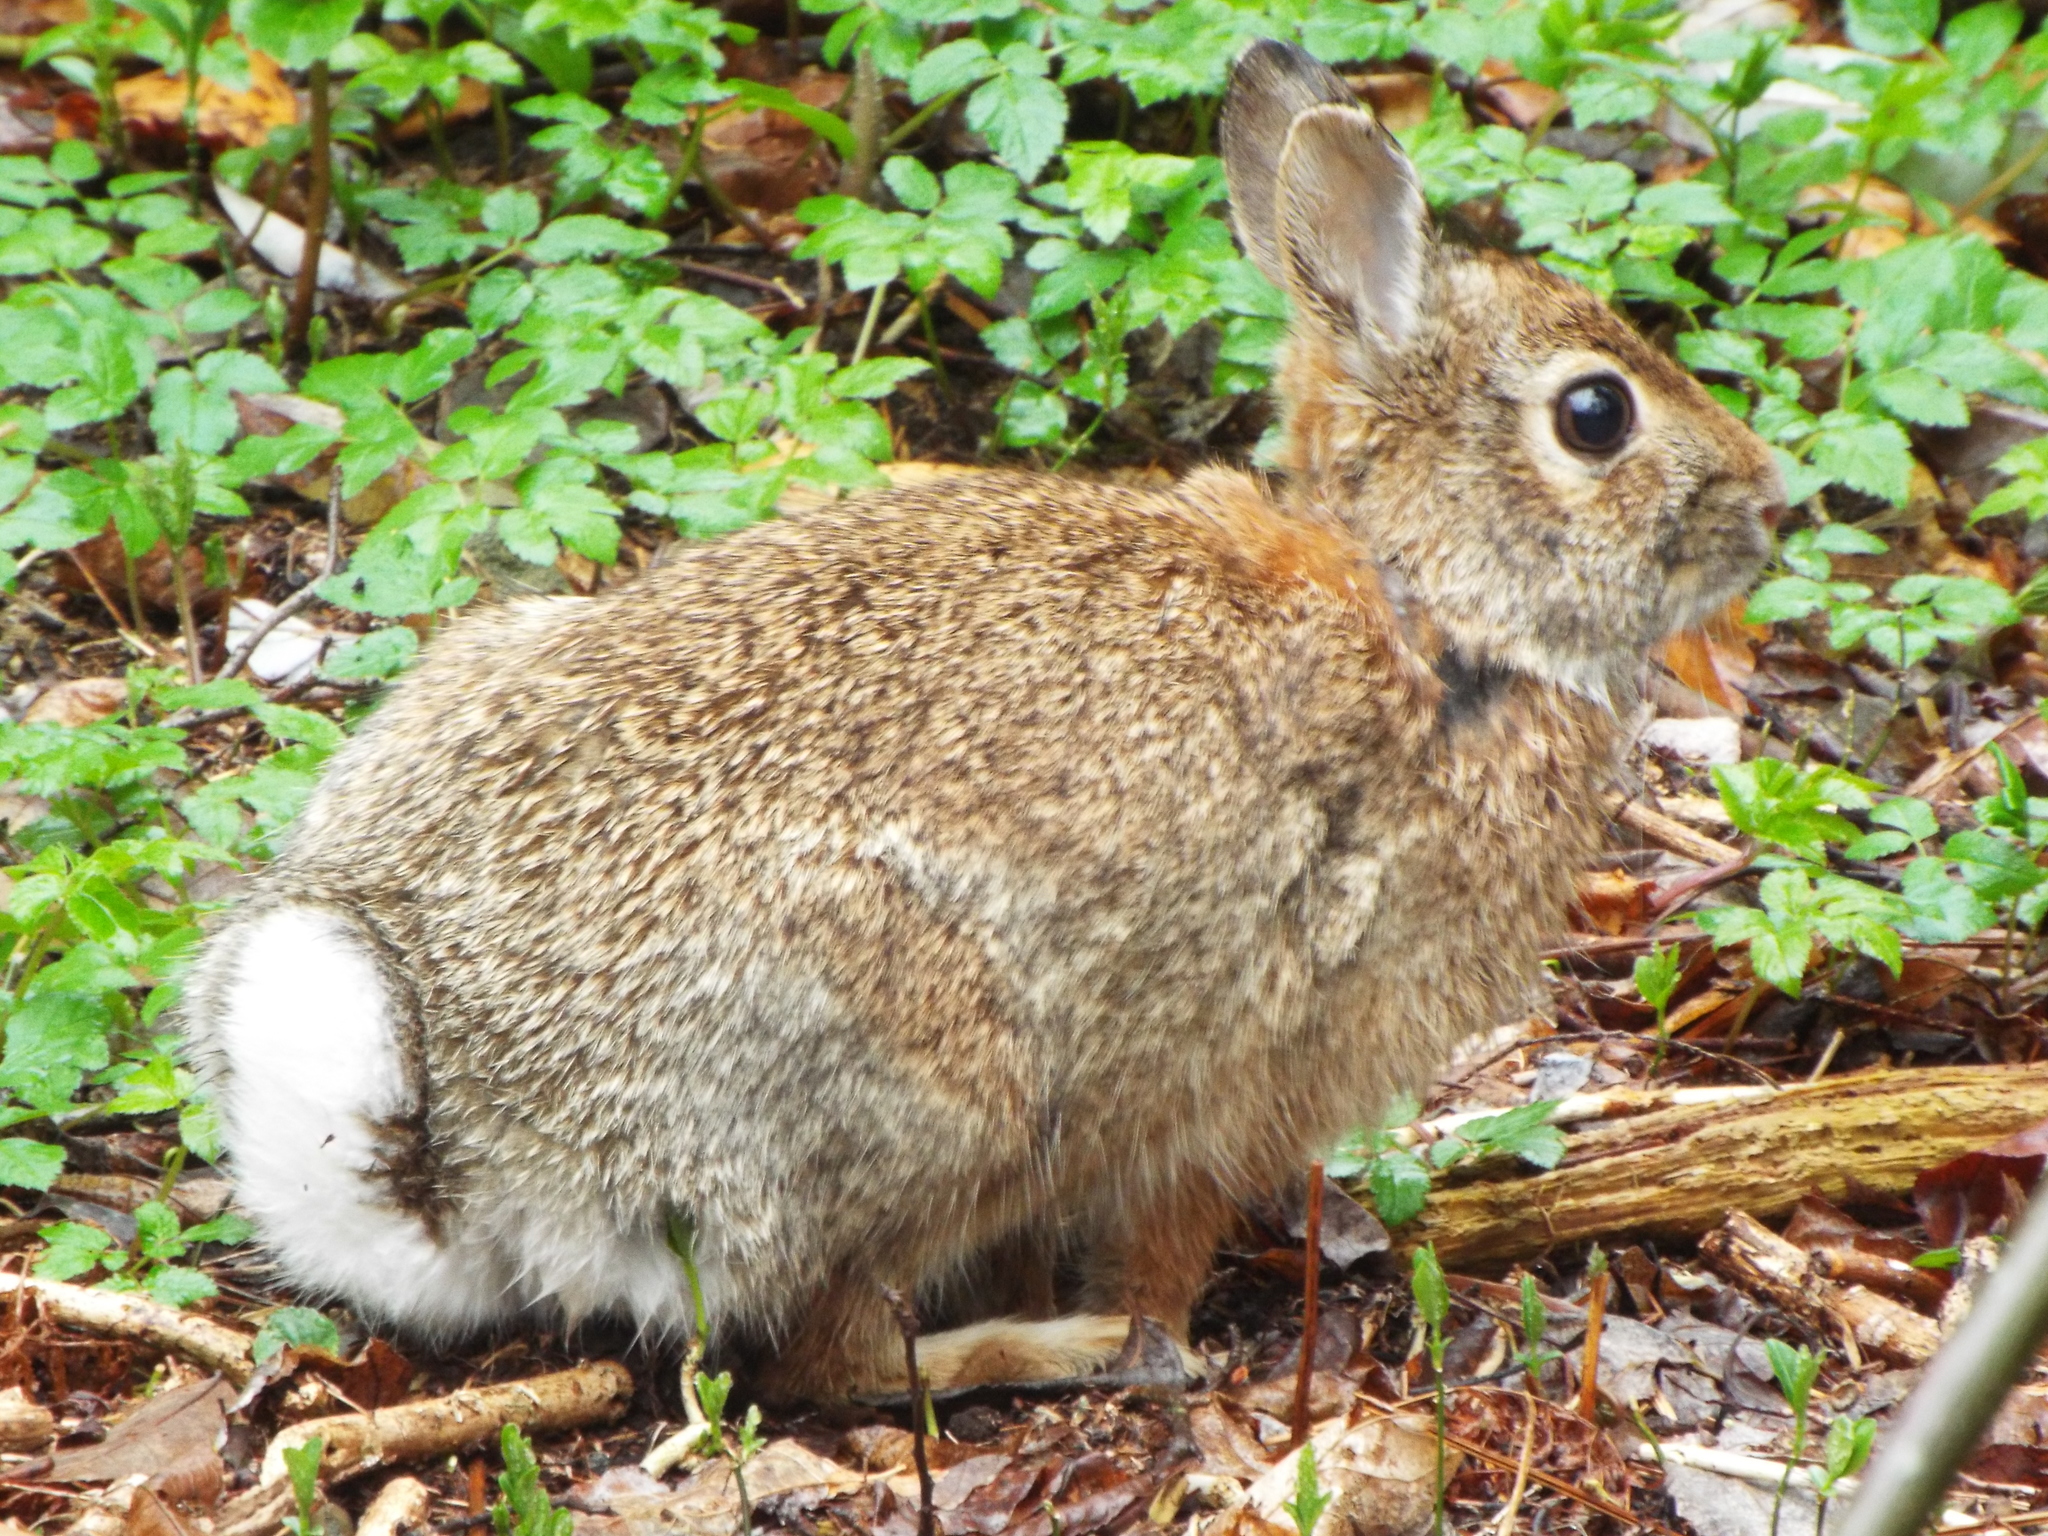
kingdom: Animalia
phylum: Chordata
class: Mammalia
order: Lagomorpha
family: Leporidae
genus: Sylvilagus
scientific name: Sylvilagus floridanus
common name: Eastern cottontail
